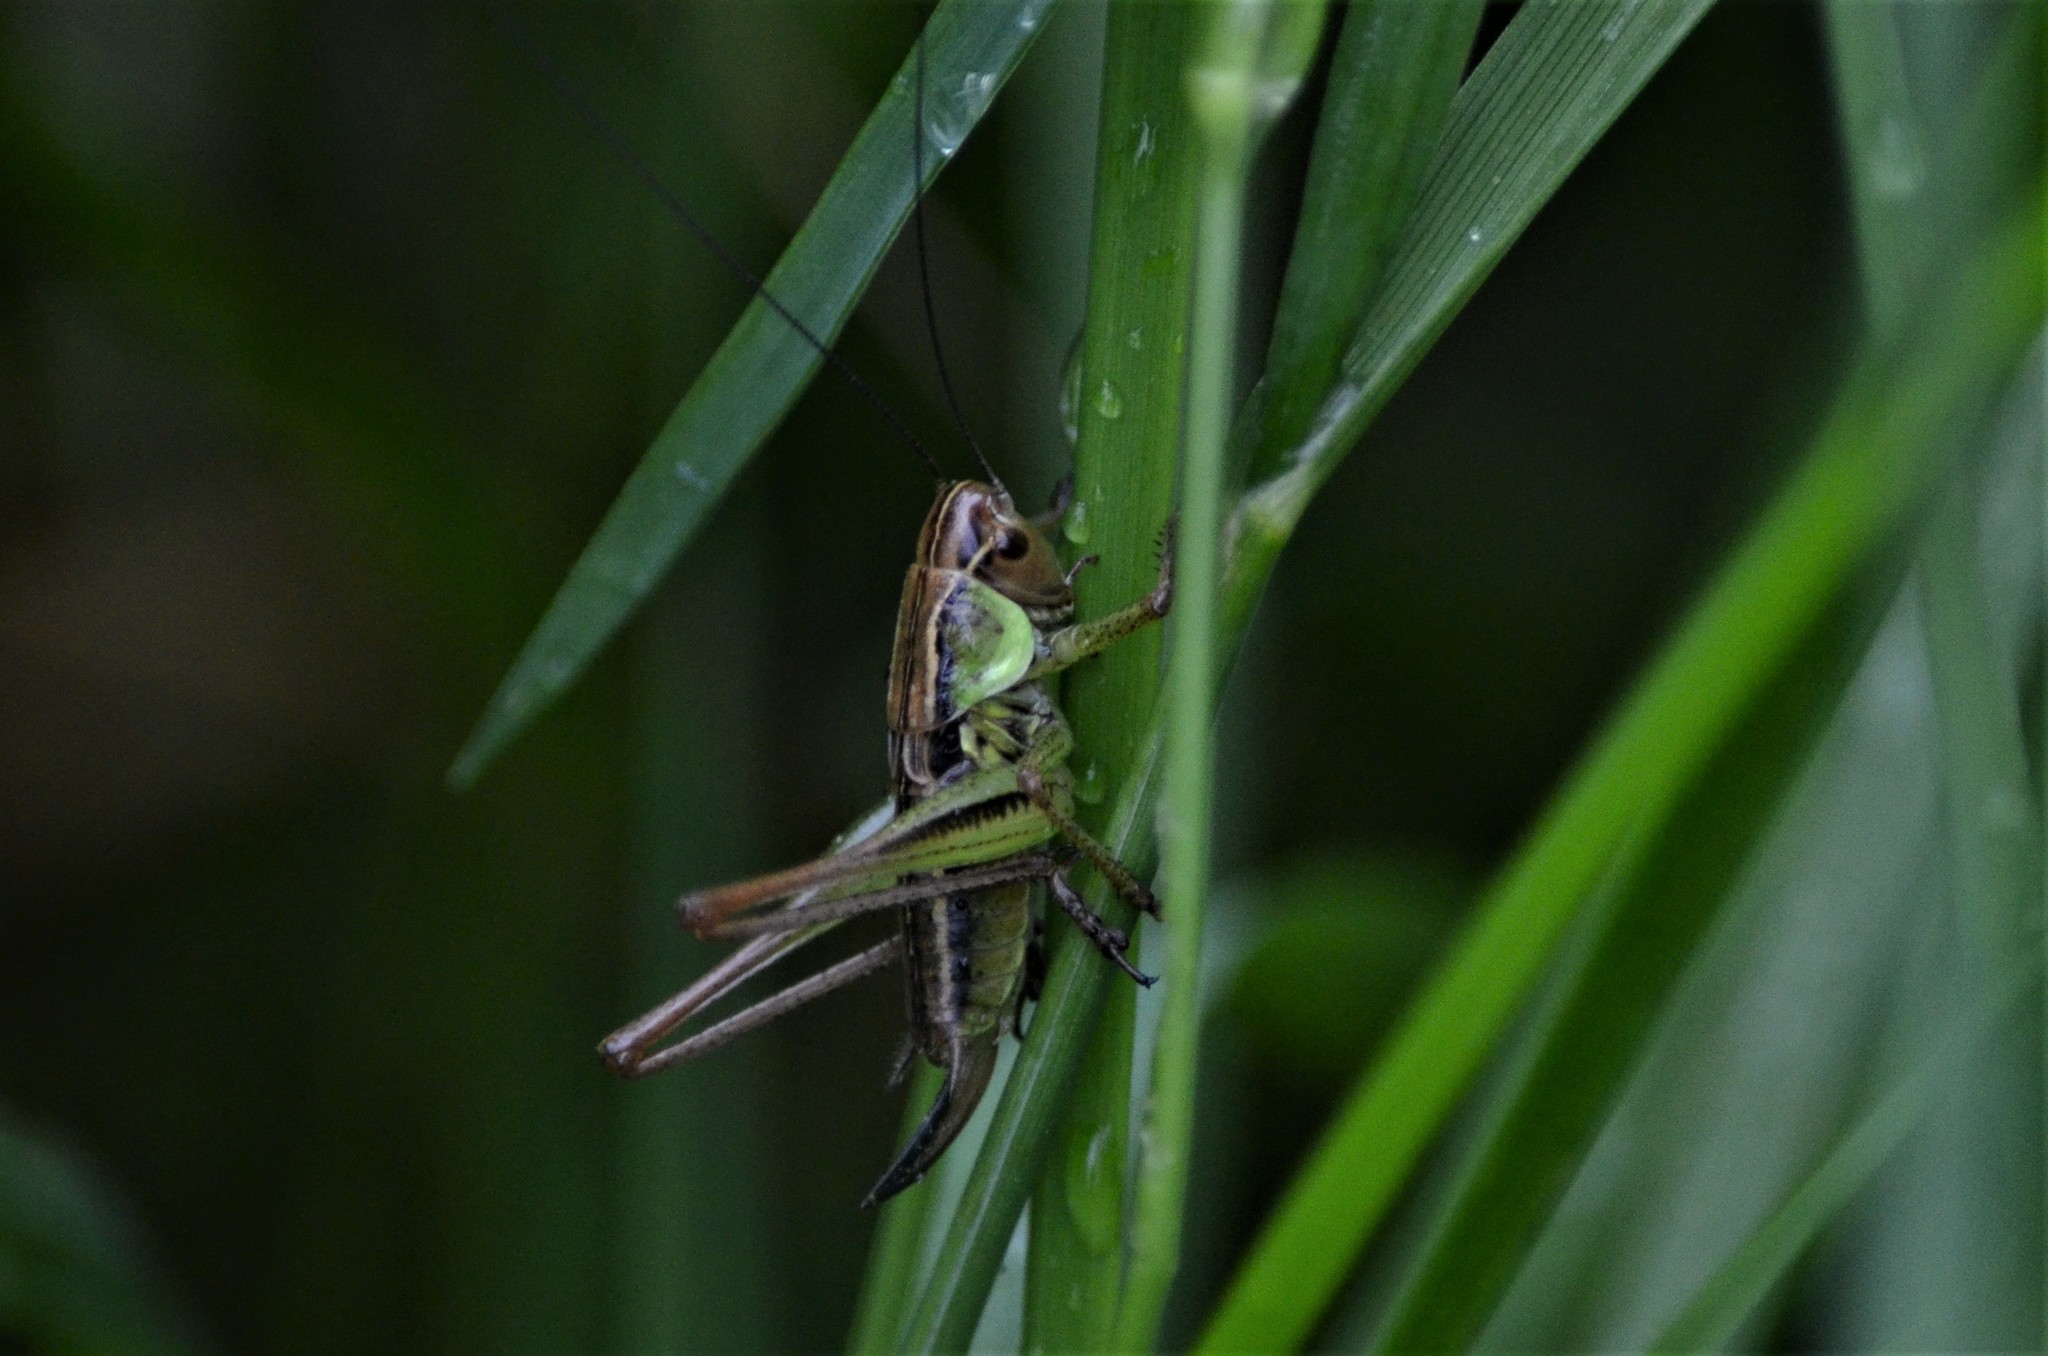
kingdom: Animalia
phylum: Arthropoda
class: Insecta
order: Orthoptera
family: Tettigoniidae
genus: Roeseliana
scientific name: Roeseliana roeselii
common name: Roesel's bush cricket
